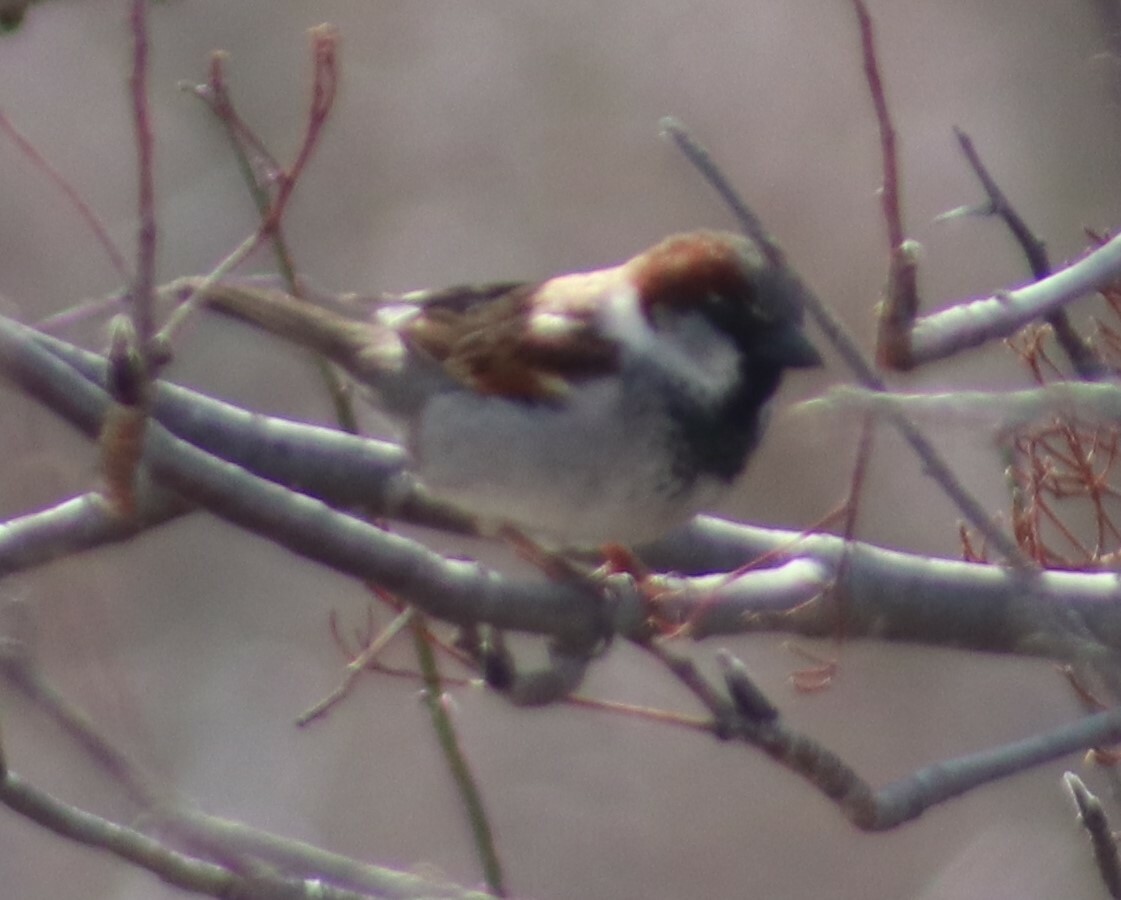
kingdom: Animalia
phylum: Chordata
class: Aves
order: Passeriformes
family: Passeridae
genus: Passer
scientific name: Passer domesticus
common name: House sparrow
